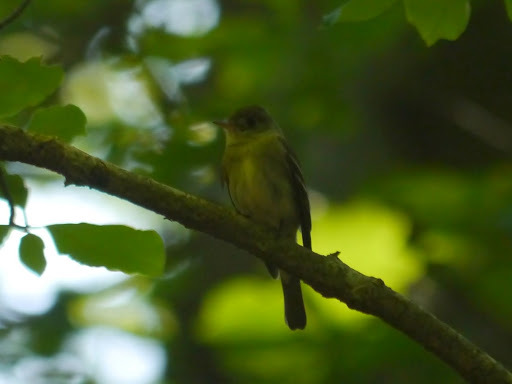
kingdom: Animalia
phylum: Chordata
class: Aves
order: Passeriformes
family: Tyrannidae
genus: Empidonax
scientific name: Empidonax flaviventris
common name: Yellow-bellied flycatcher
